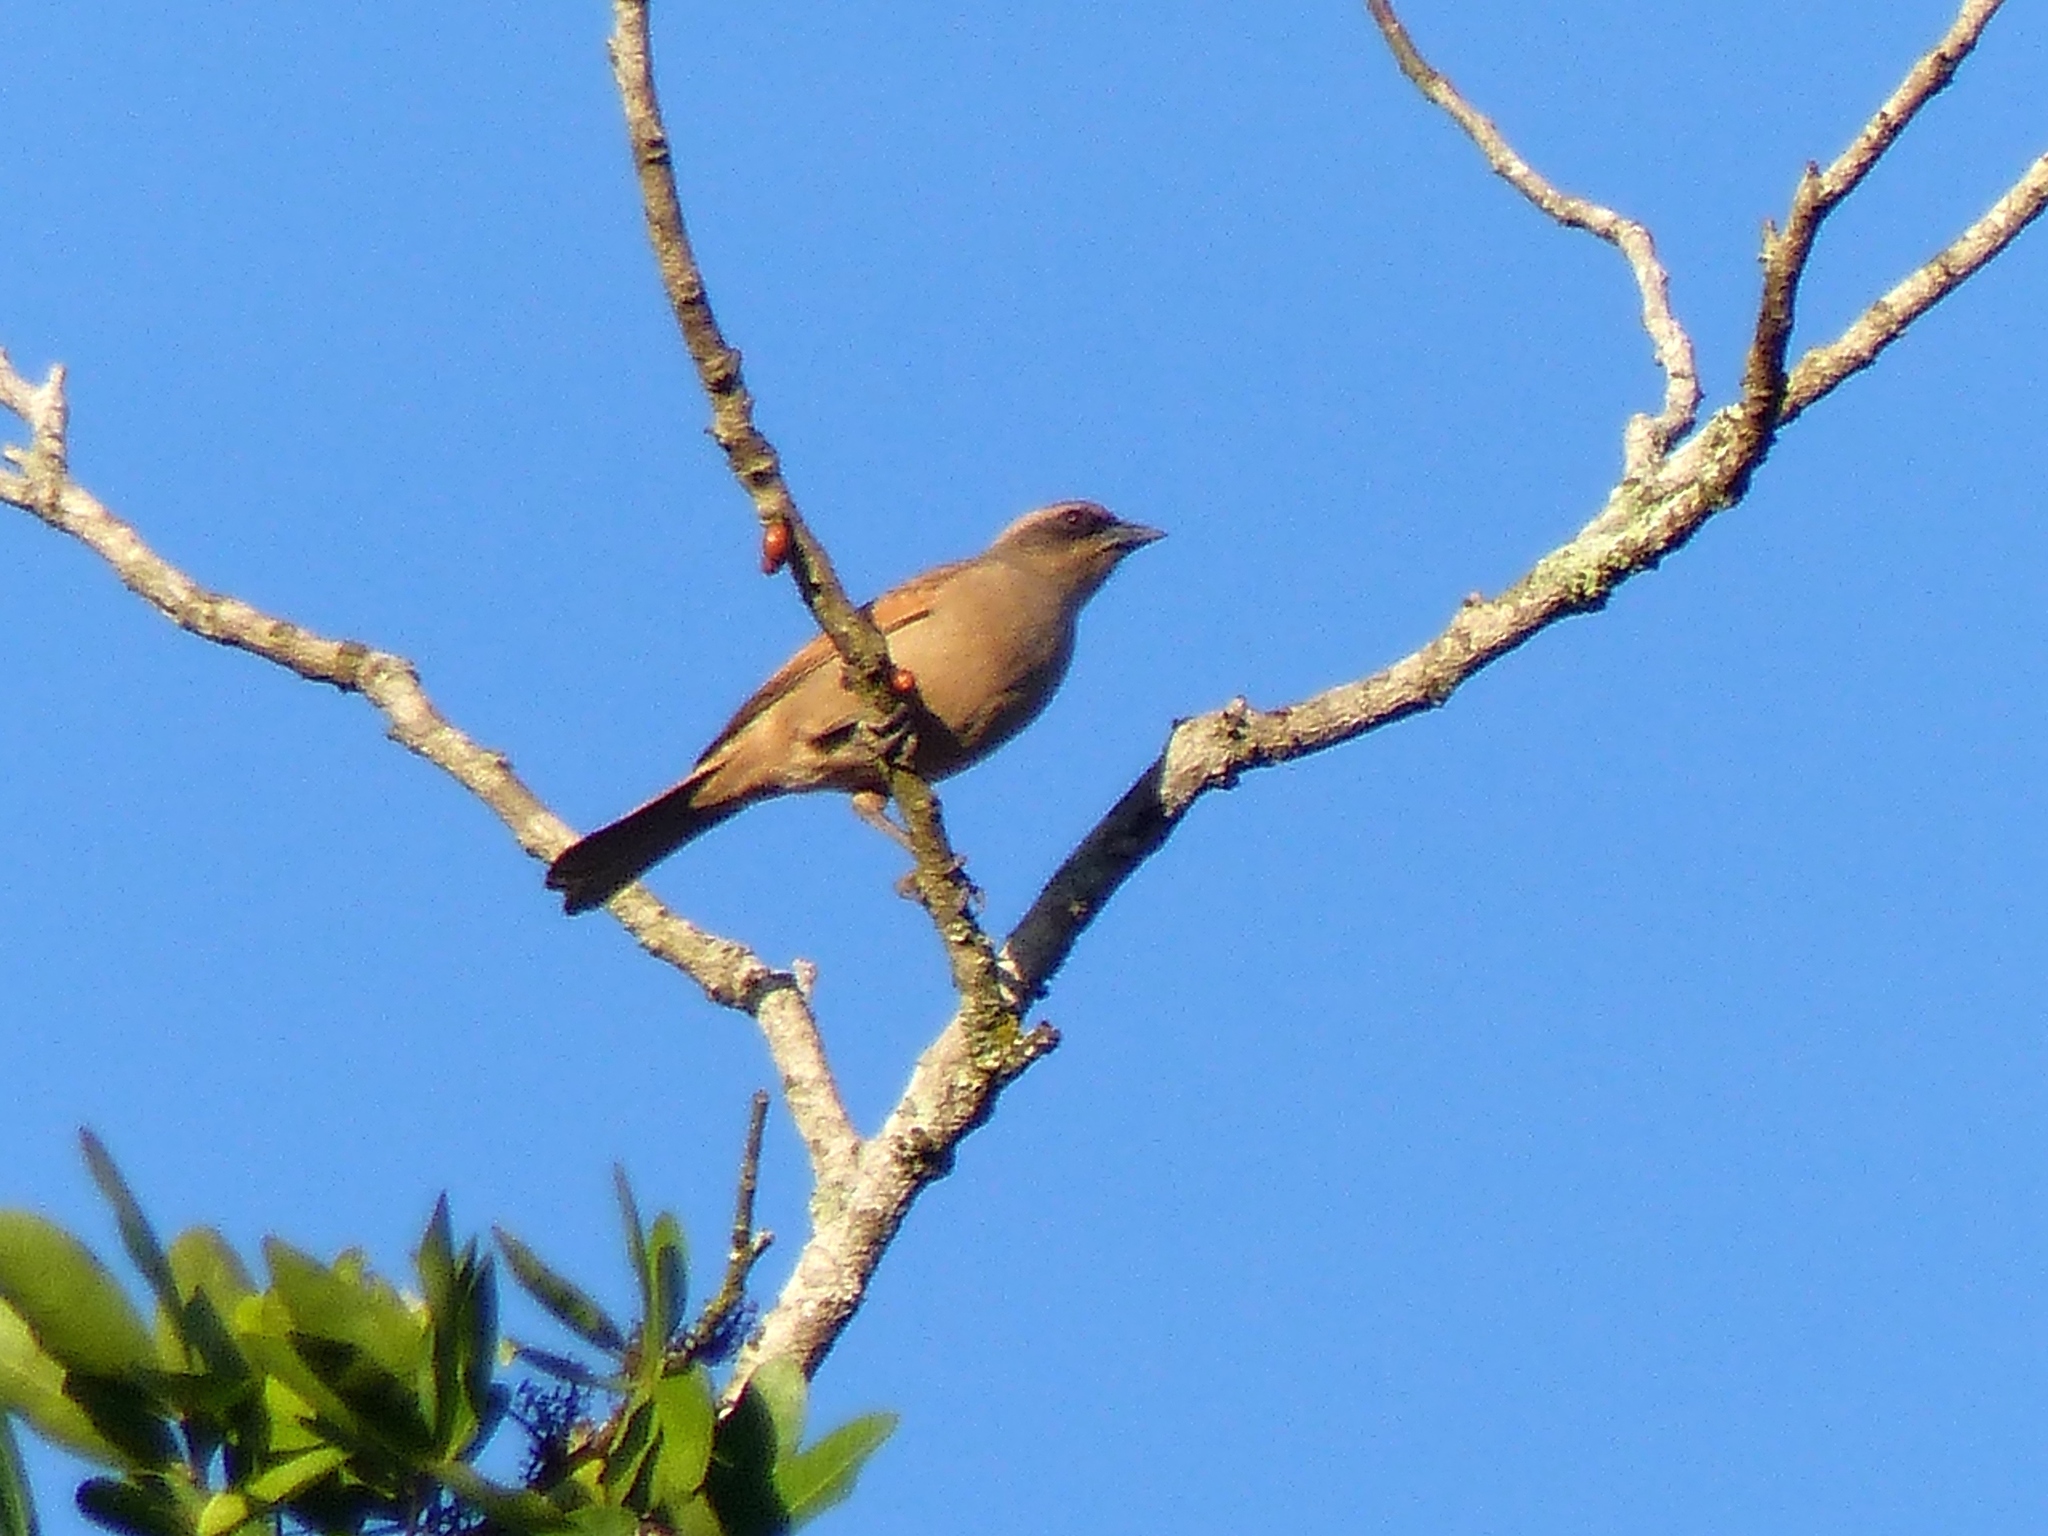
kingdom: Animalia
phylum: Chordata
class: Aves
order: Passeriformes
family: Icteridae
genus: Agelaioides
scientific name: Agelaioides badius
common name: Baywing
